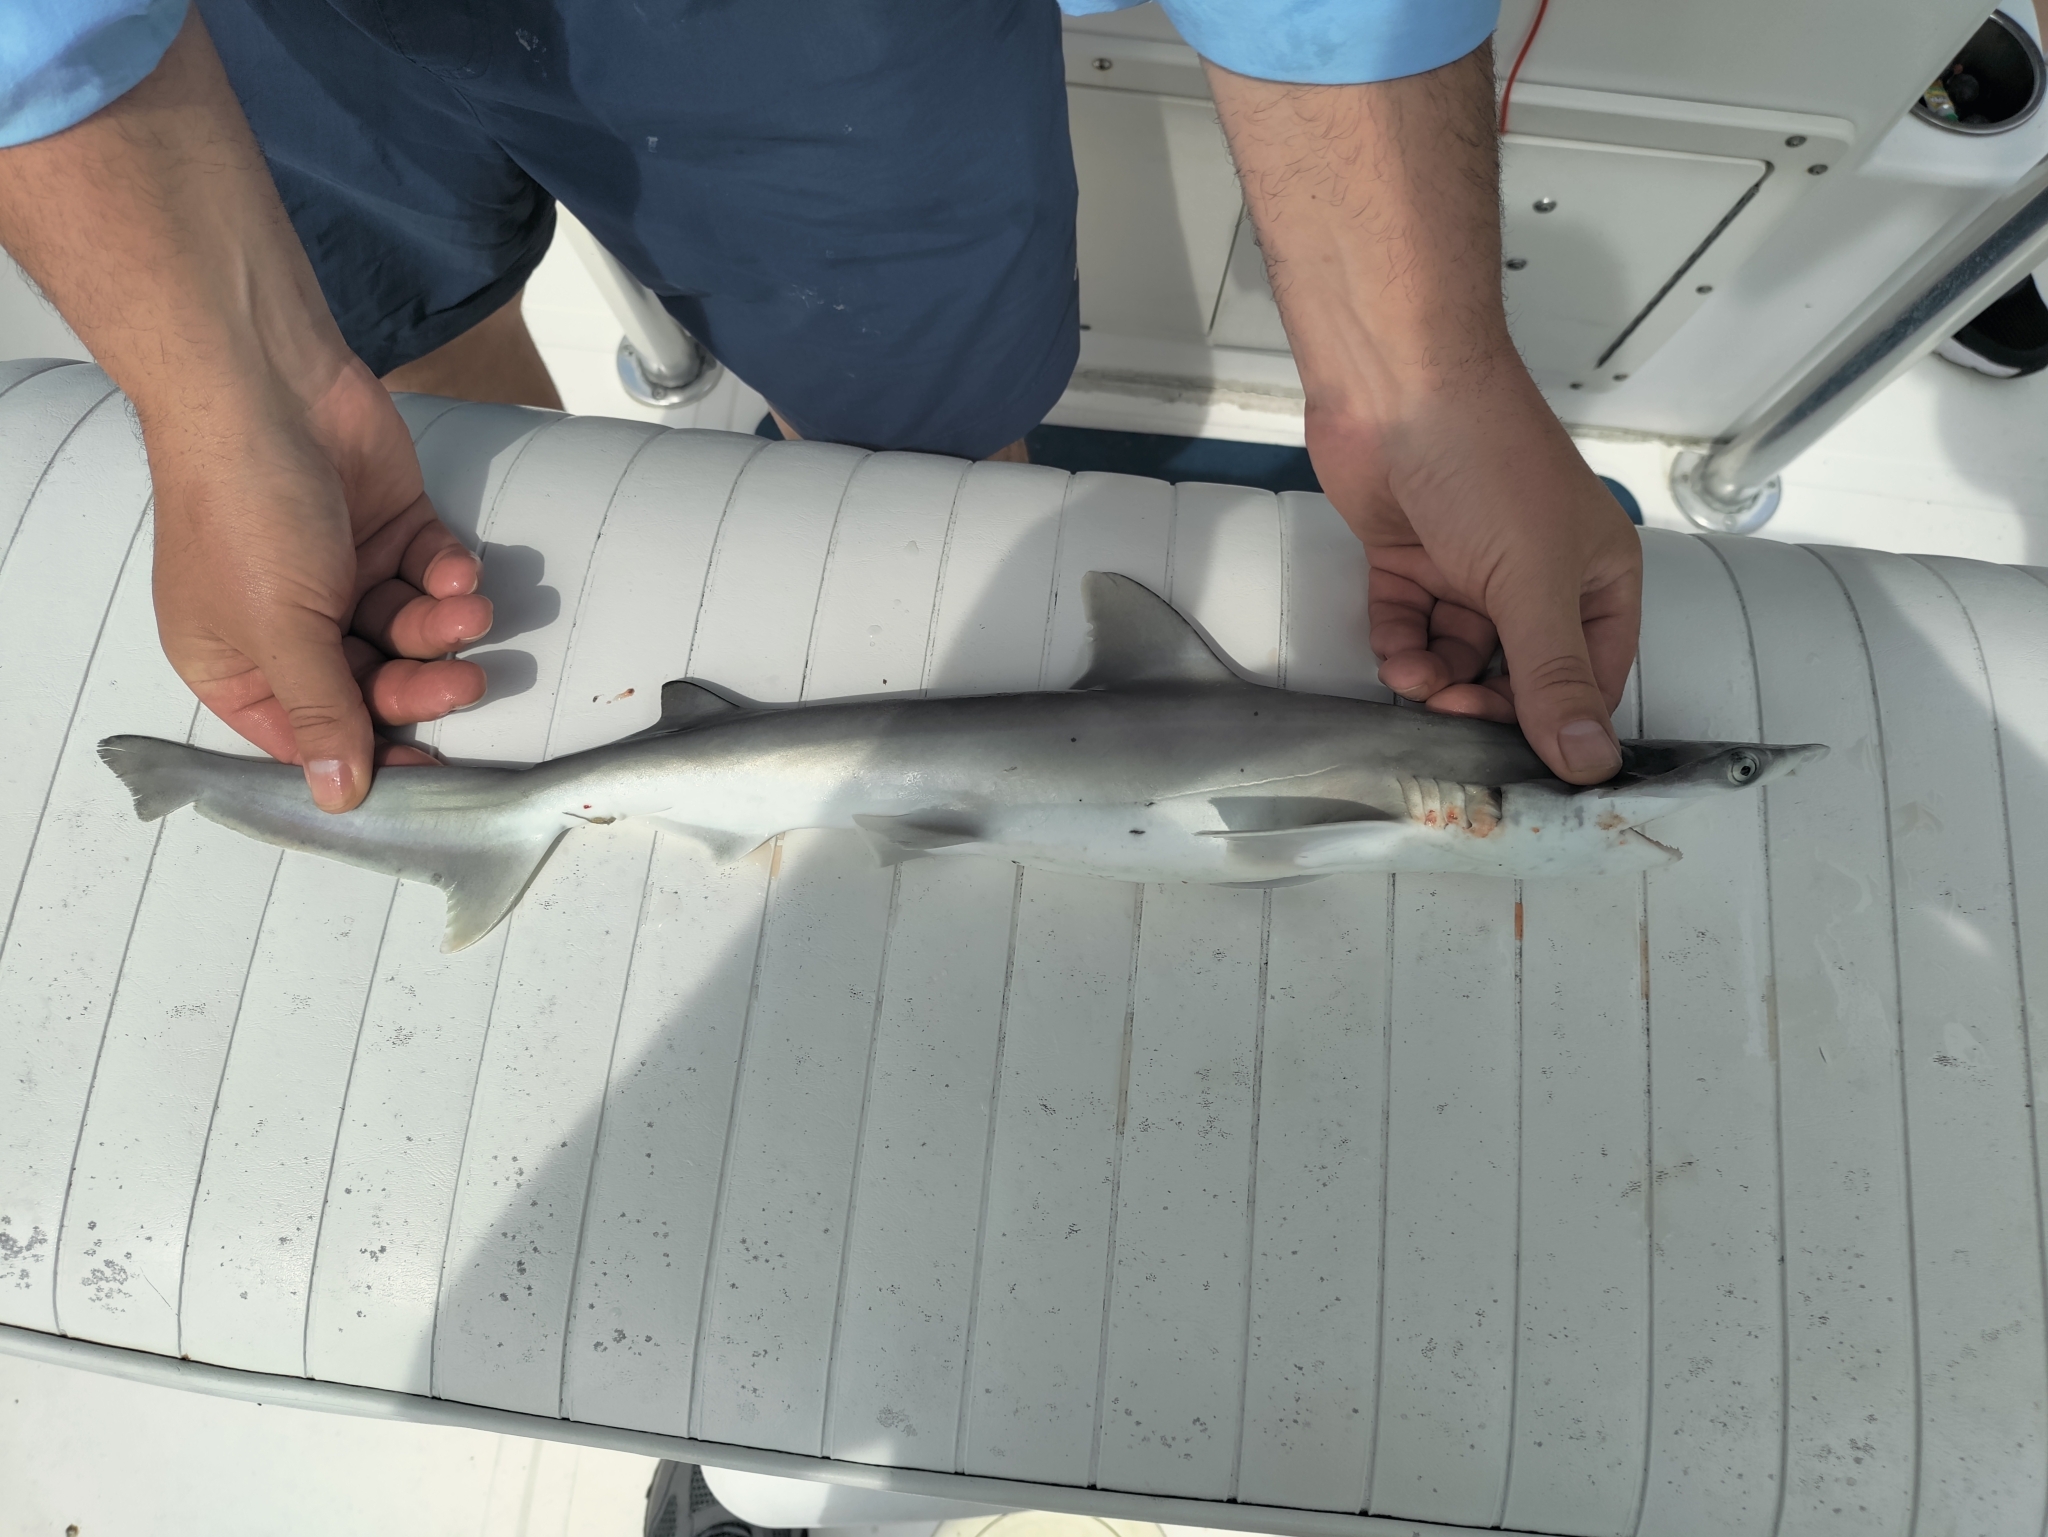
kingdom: Animalia
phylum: Chordata
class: Elasmobranchii
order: Carcharhiniformes
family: Sphyrnidae
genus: Sphyrna
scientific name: Sphyrna tiburo
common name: Bonnethead
